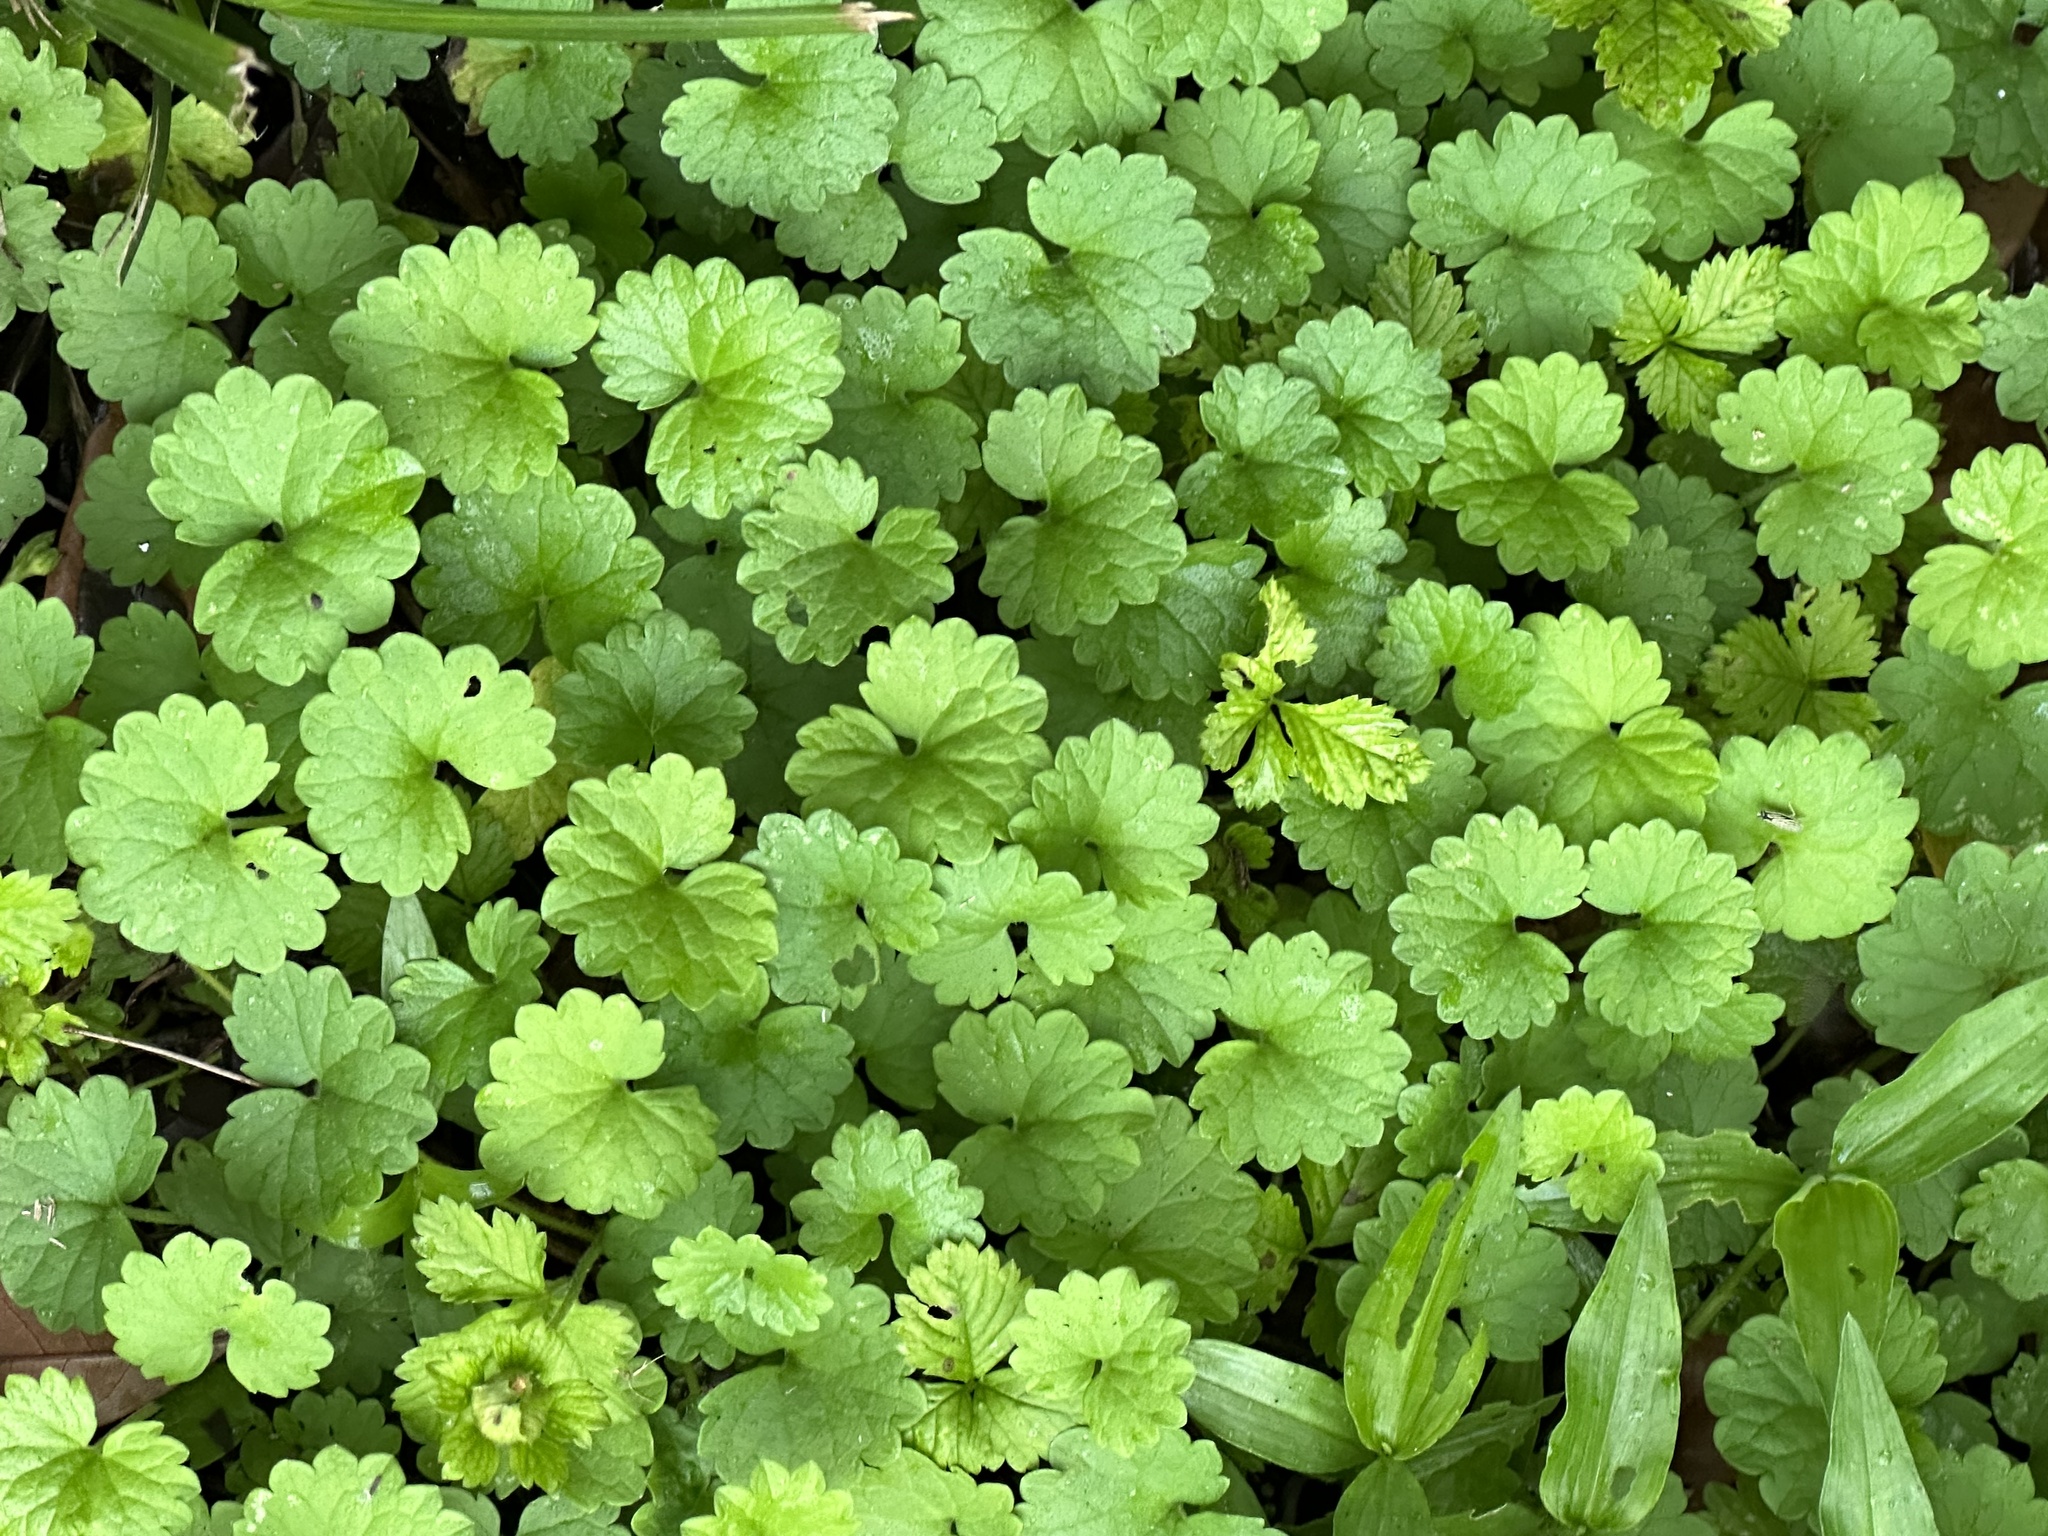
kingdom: Plantae
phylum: Tracheophyta
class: Magnoliopsida
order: Lamiales
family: Lamiaceae
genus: Glechoma
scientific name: Glechoma hederacea
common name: Ground ivy
